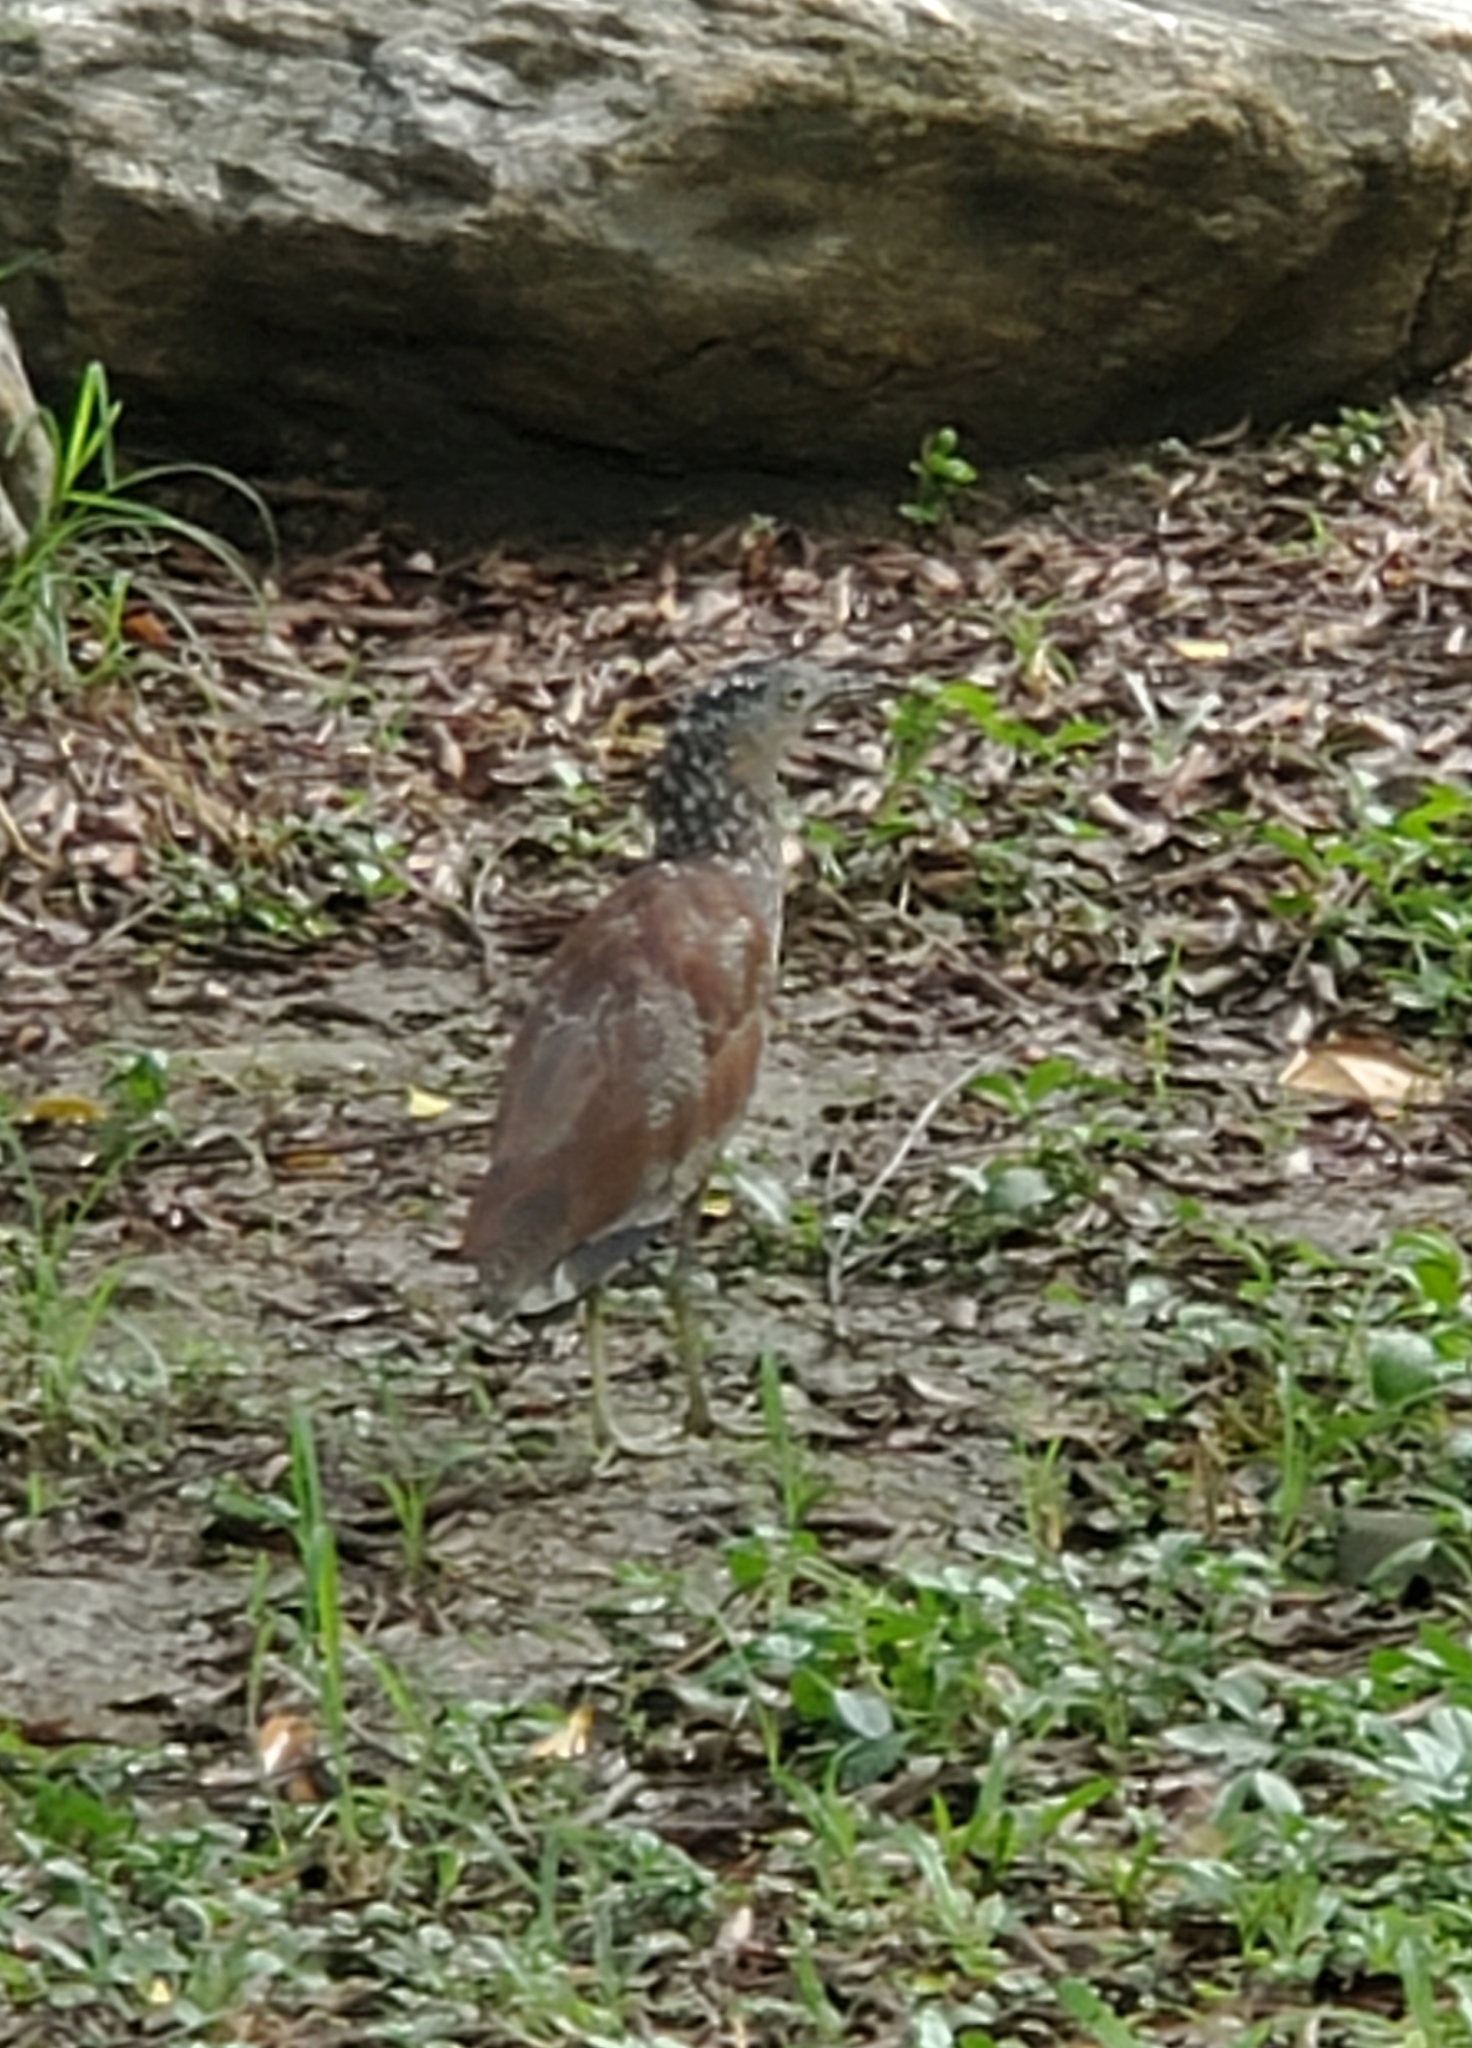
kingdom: Animalia
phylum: Chordata
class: Aves
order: Pelecaniformes
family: Ardeidae
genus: Gorsachius
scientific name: Gorsachius melanolophus
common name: Malayan night heron
